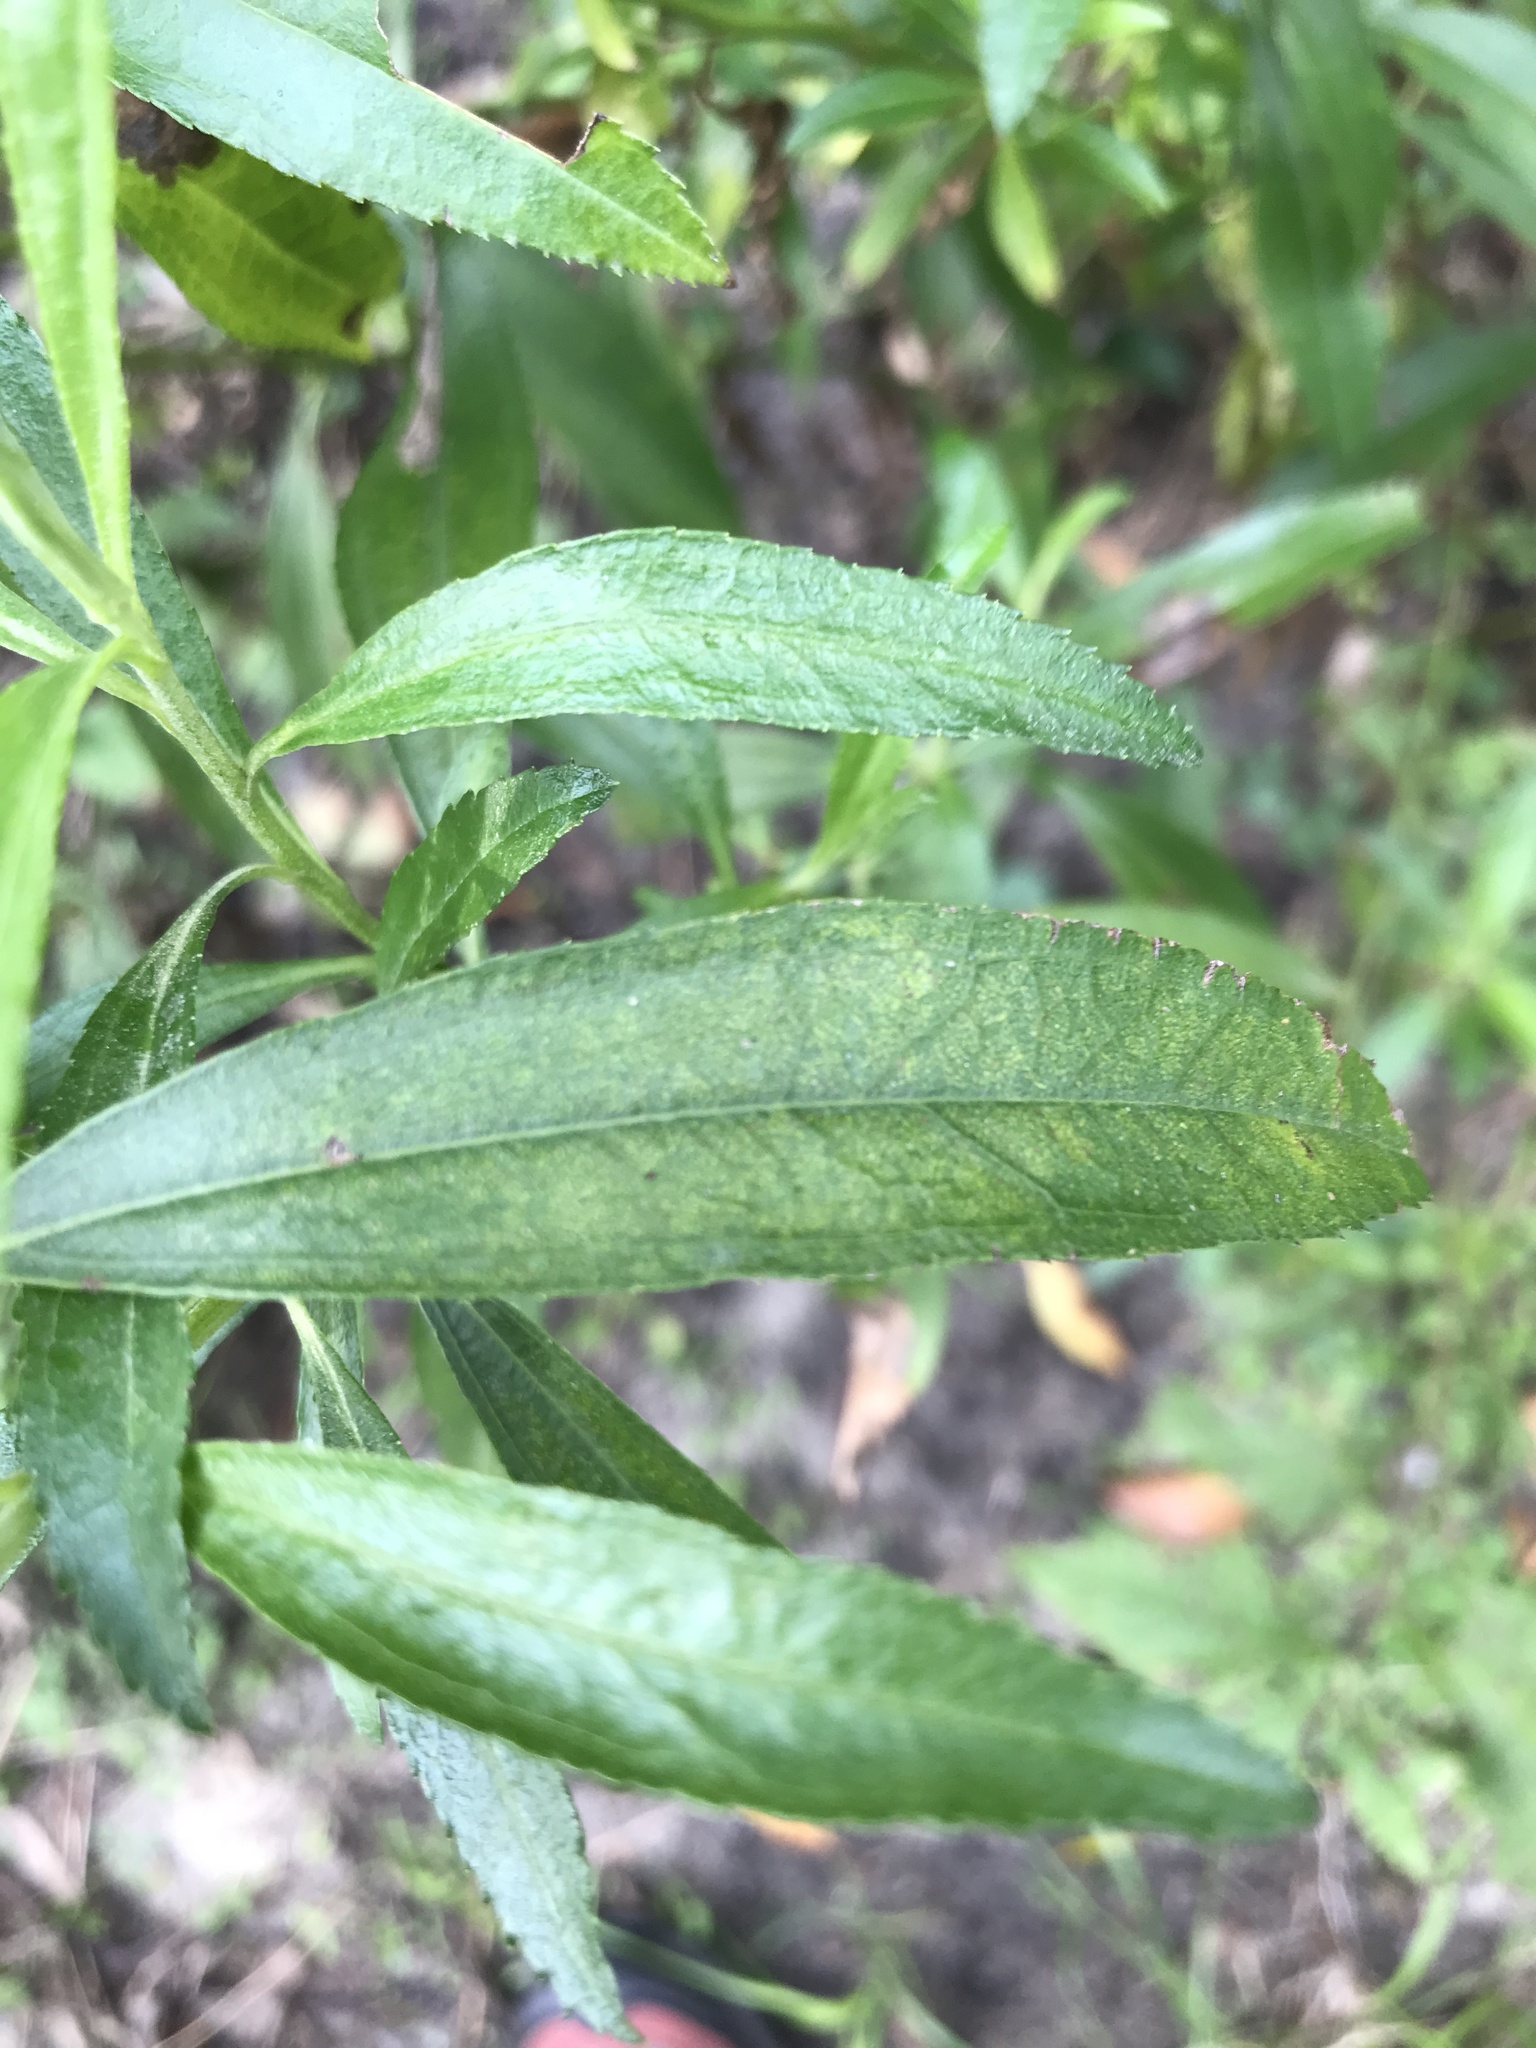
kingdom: Plantae
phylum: Tracheophyta
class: Magnoliopsida
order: Asterales
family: Asteraceae
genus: Baccharis
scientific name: Baccharis punctulata
